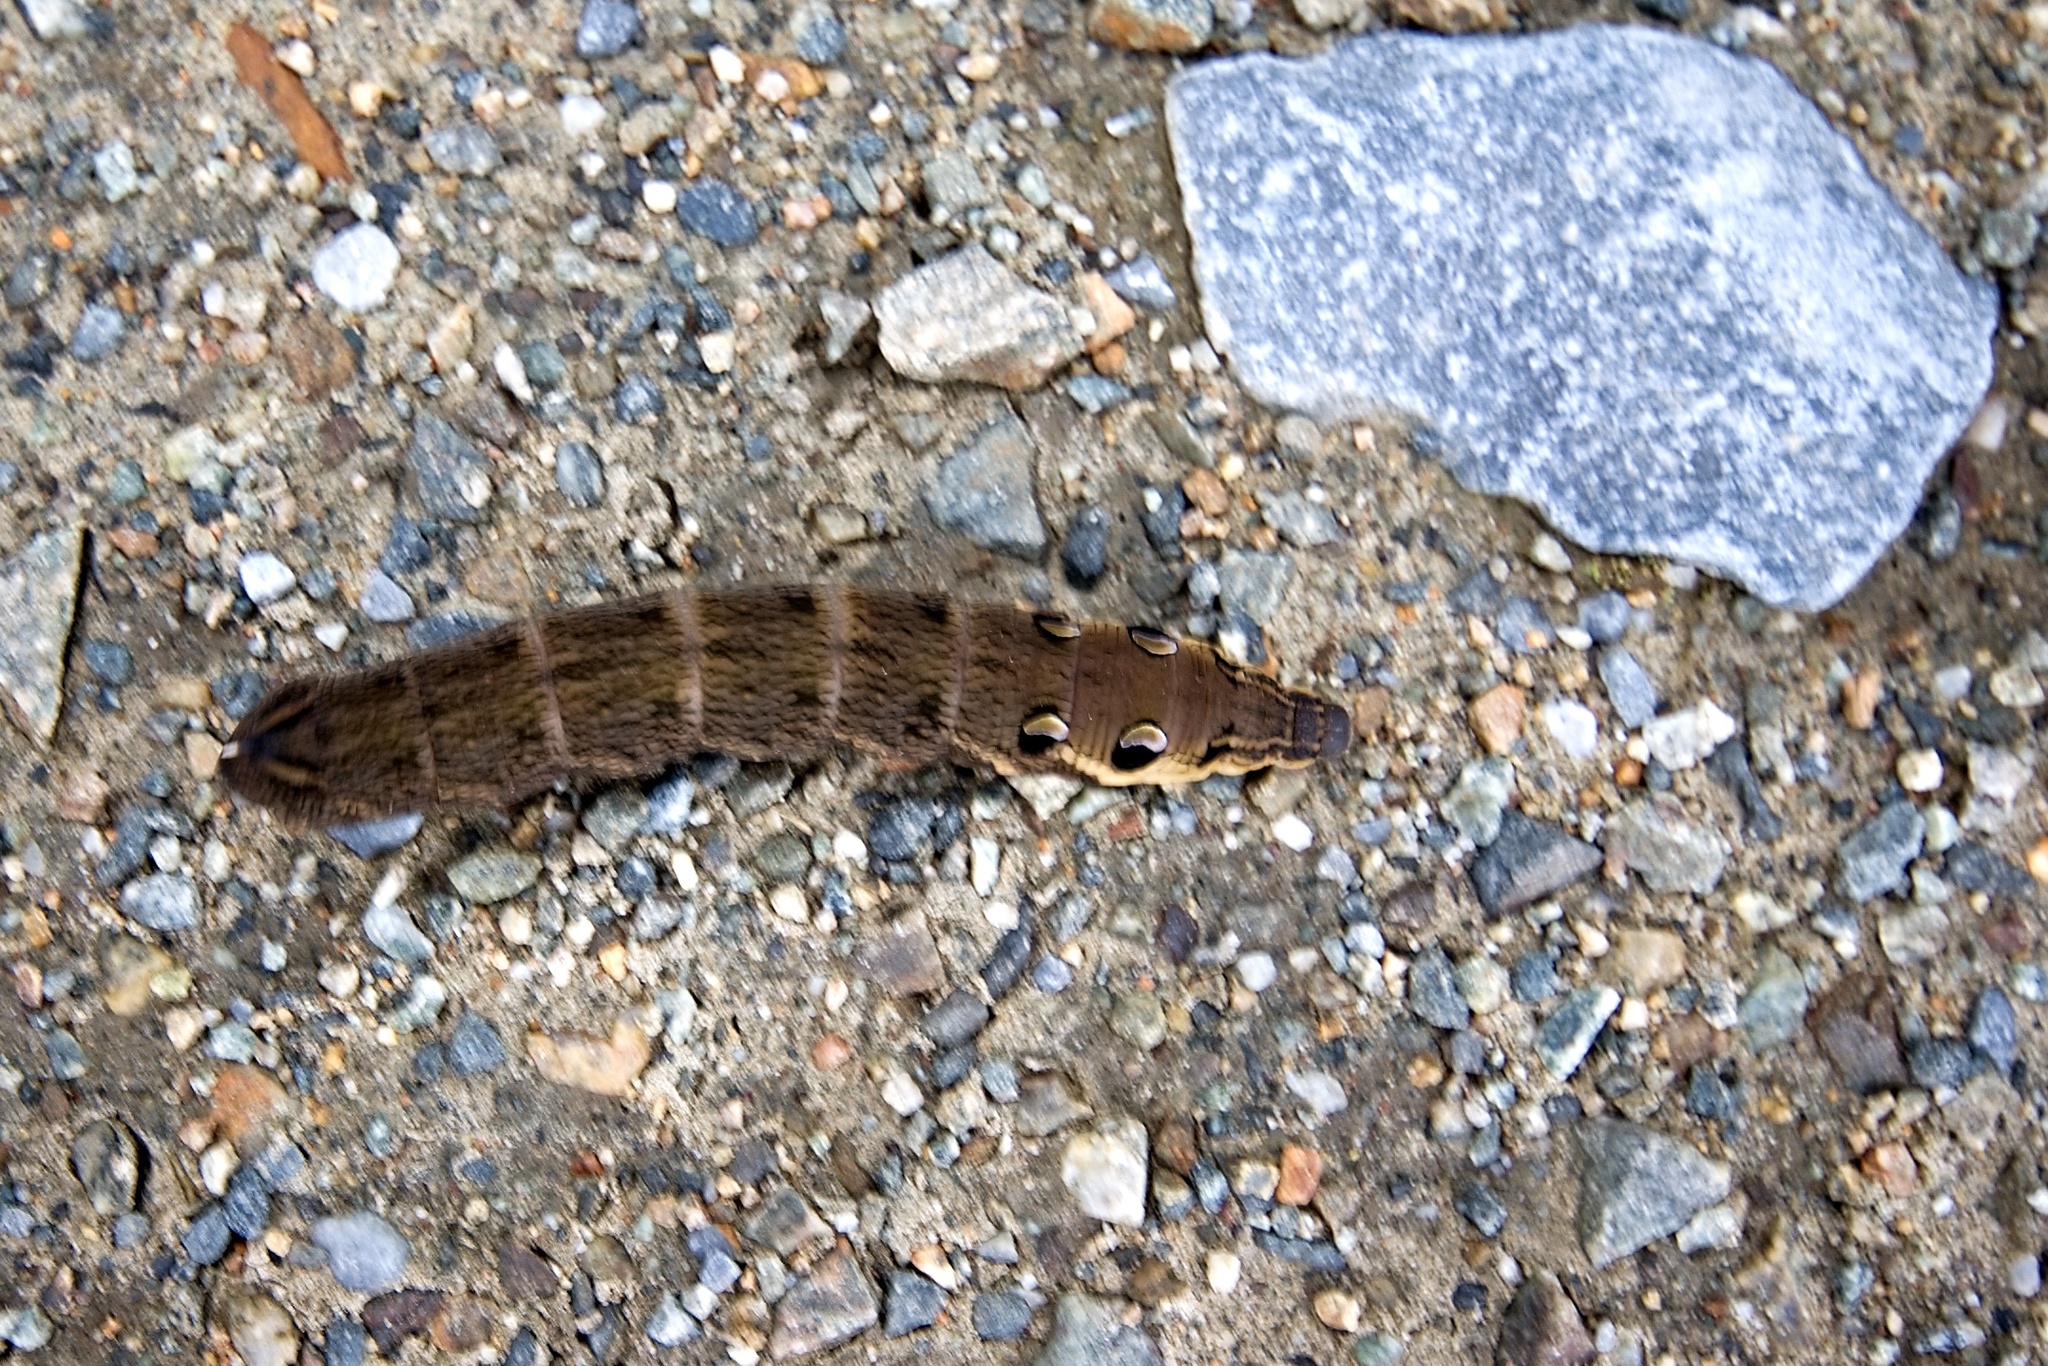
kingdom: Animalia
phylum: Arthropoda
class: Insecta
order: Lepidoptera
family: Sphingidae
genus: Deilephila
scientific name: Deilephila elpenor
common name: Elephant hawk-moth
